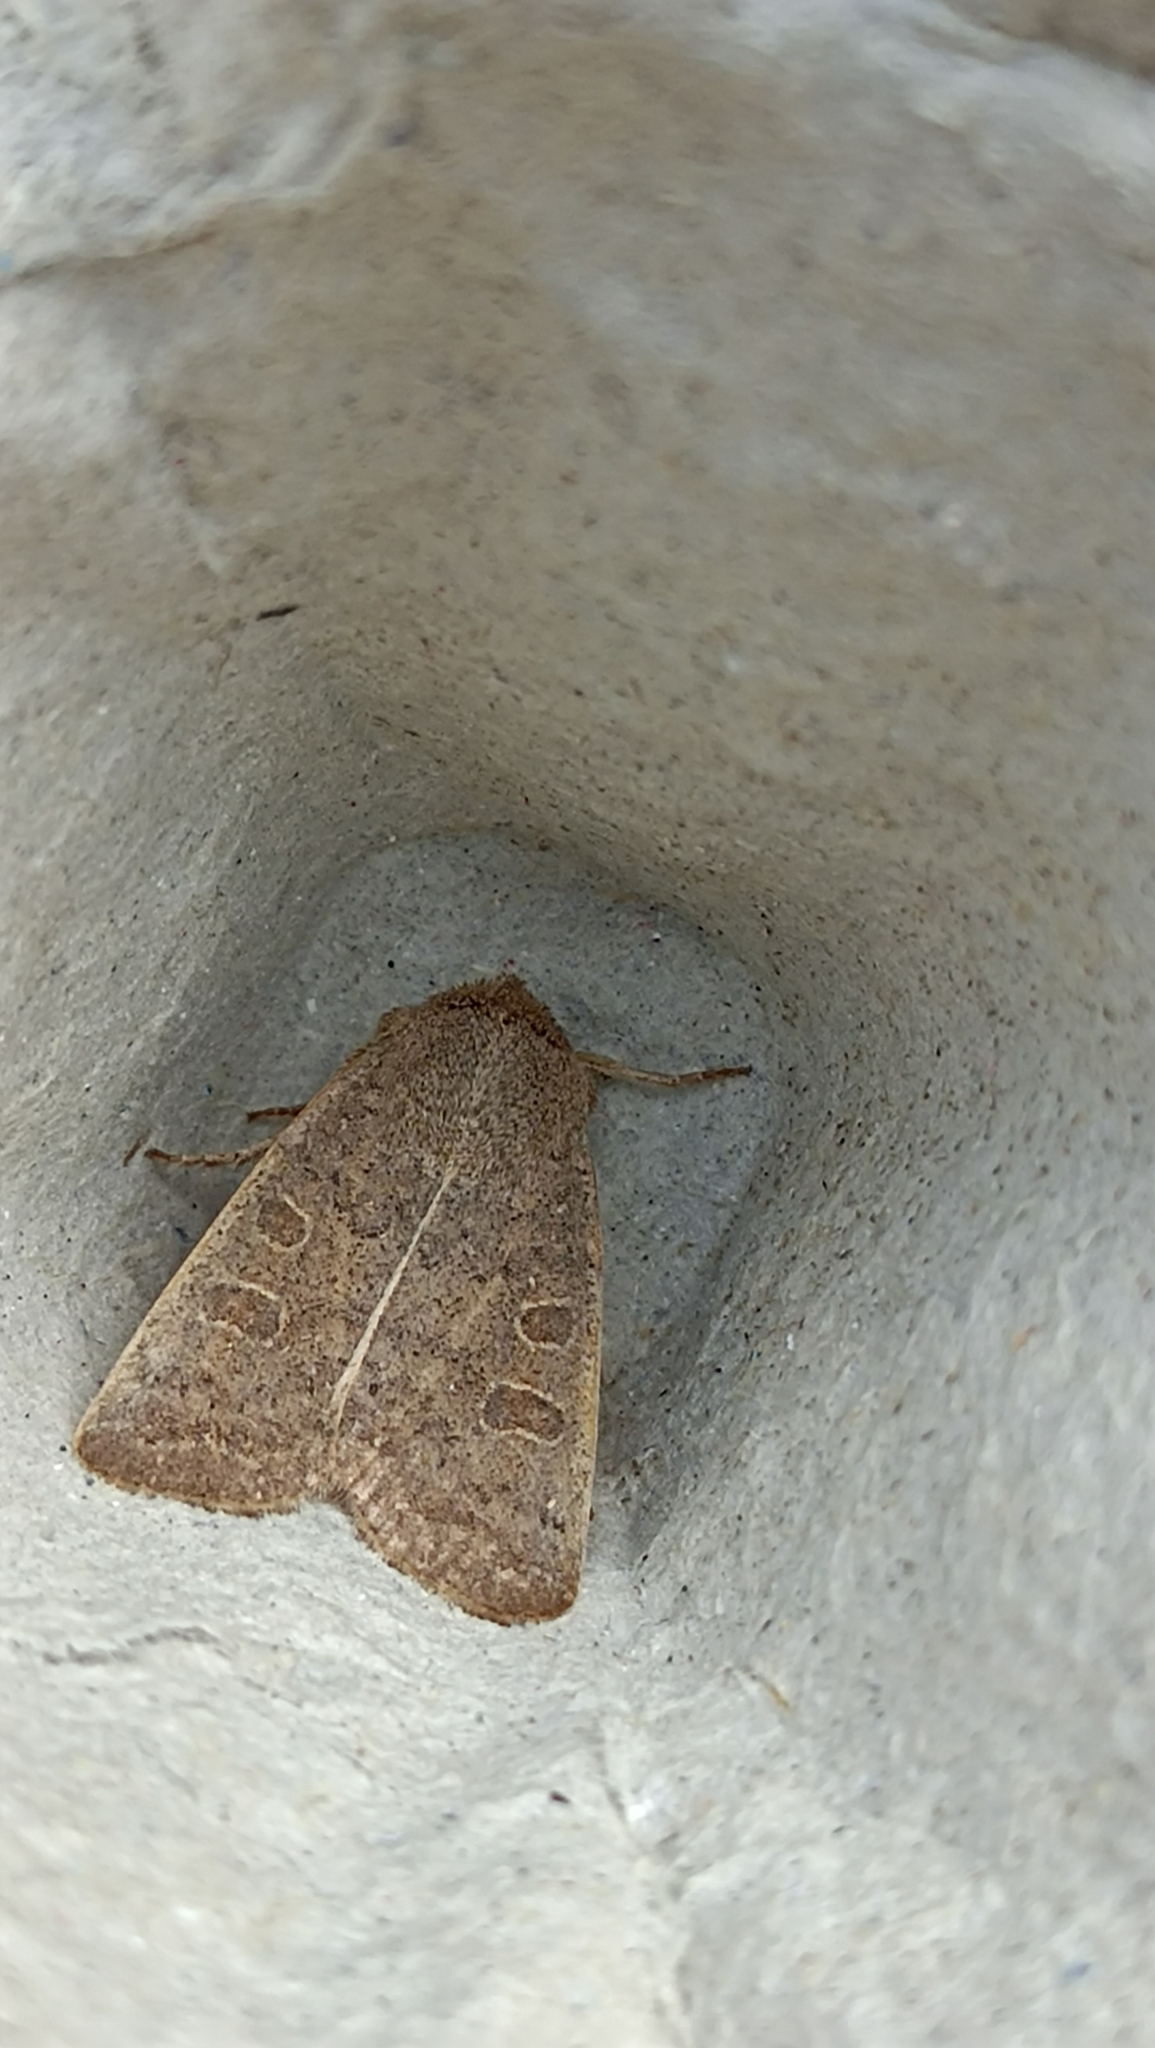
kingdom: Animalia
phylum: Arthropoda
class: Insecta
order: Lepidoptera
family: Noctuidae
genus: Hoplodrina
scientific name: Hoplodrina ambigua
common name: Vine's rustic
